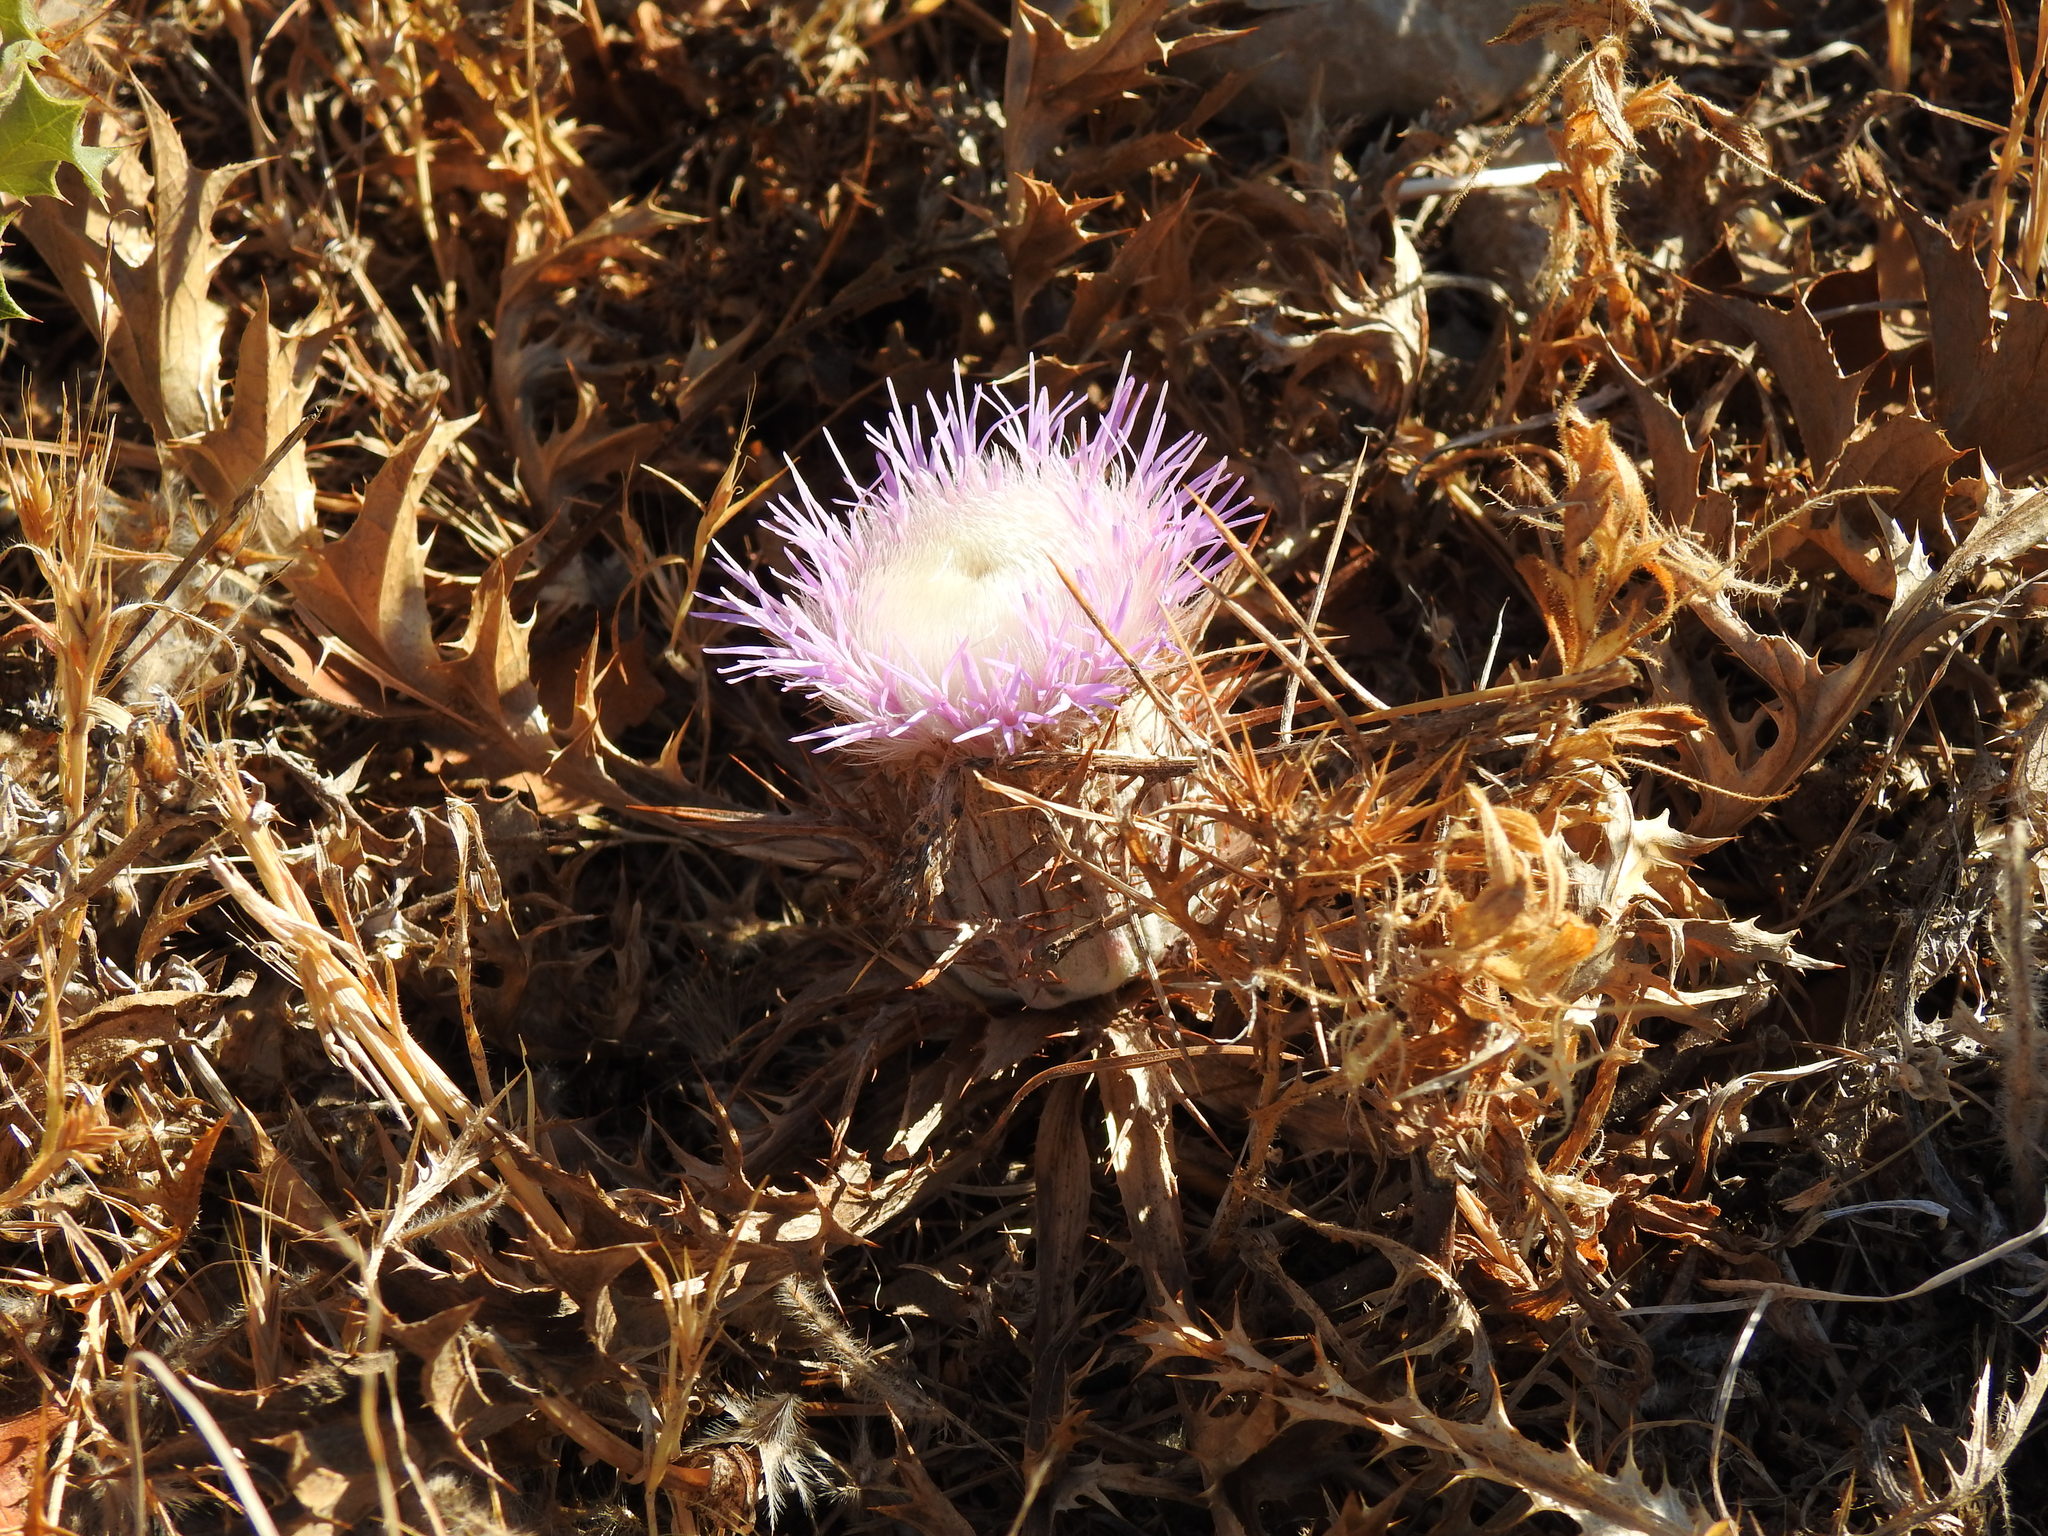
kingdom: Plantae
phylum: Tracheophyta
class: Magnoliopsida
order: Asterales
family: Asteraceae
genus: Chamaeleon
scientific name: Chamaeleon gummifer
